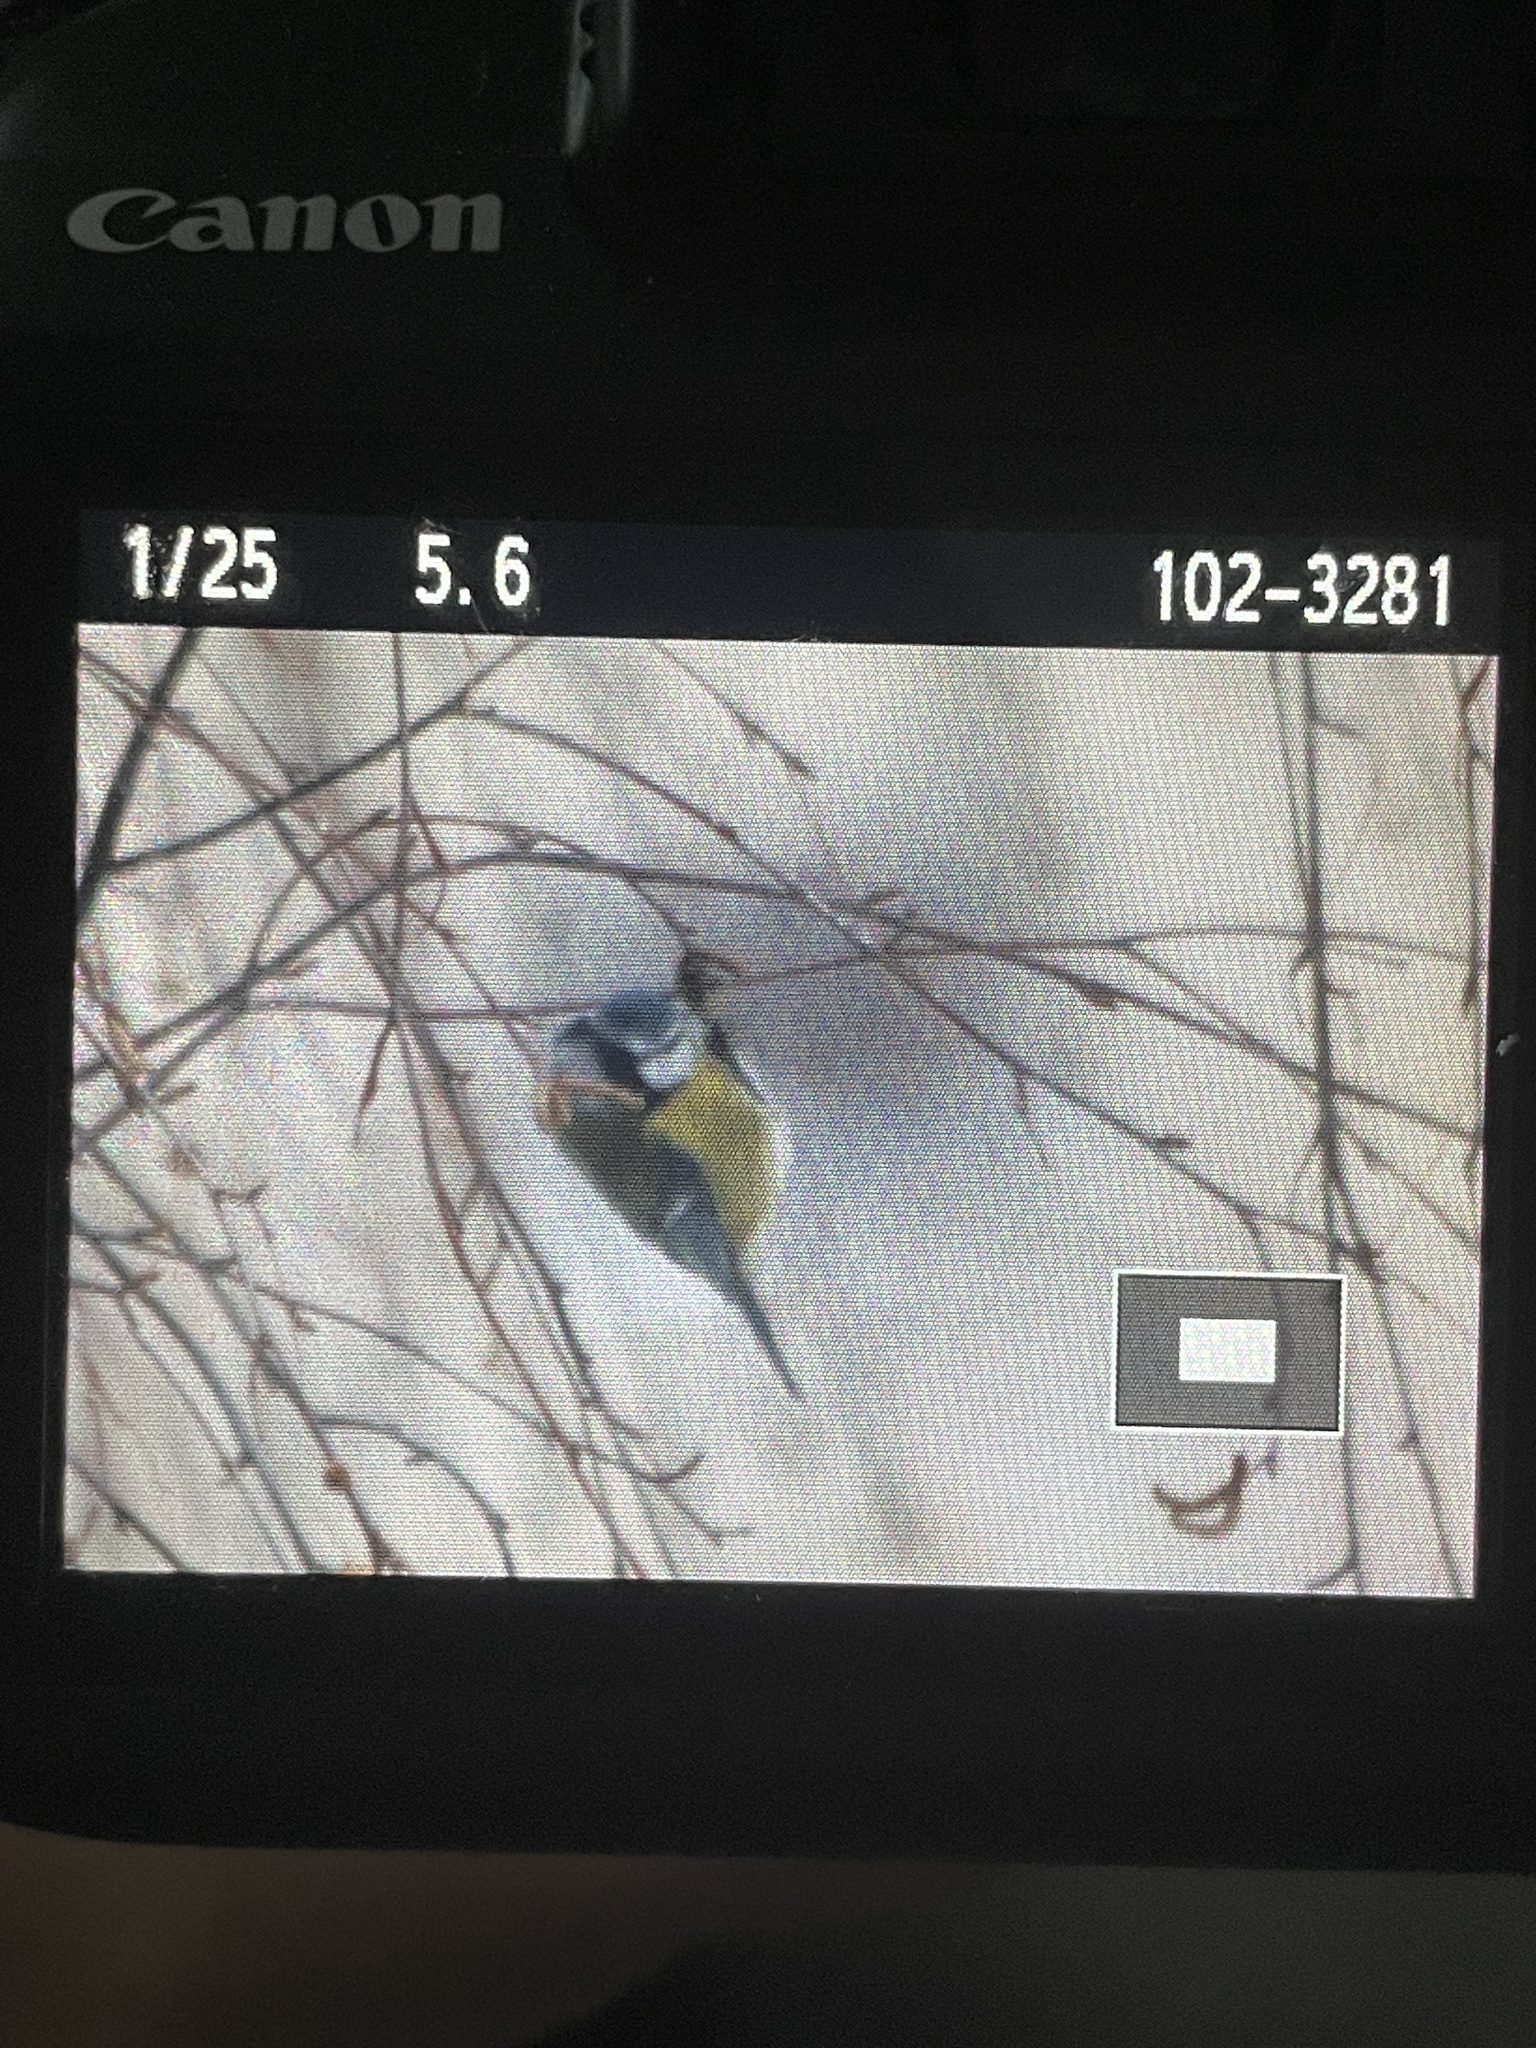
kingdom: Animalia
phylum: Chordata
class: Aves
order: Passeriformes
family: Paridae
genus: Cyanistes
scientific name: Cyanistes caeruleus
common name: Eurasian blue tit
